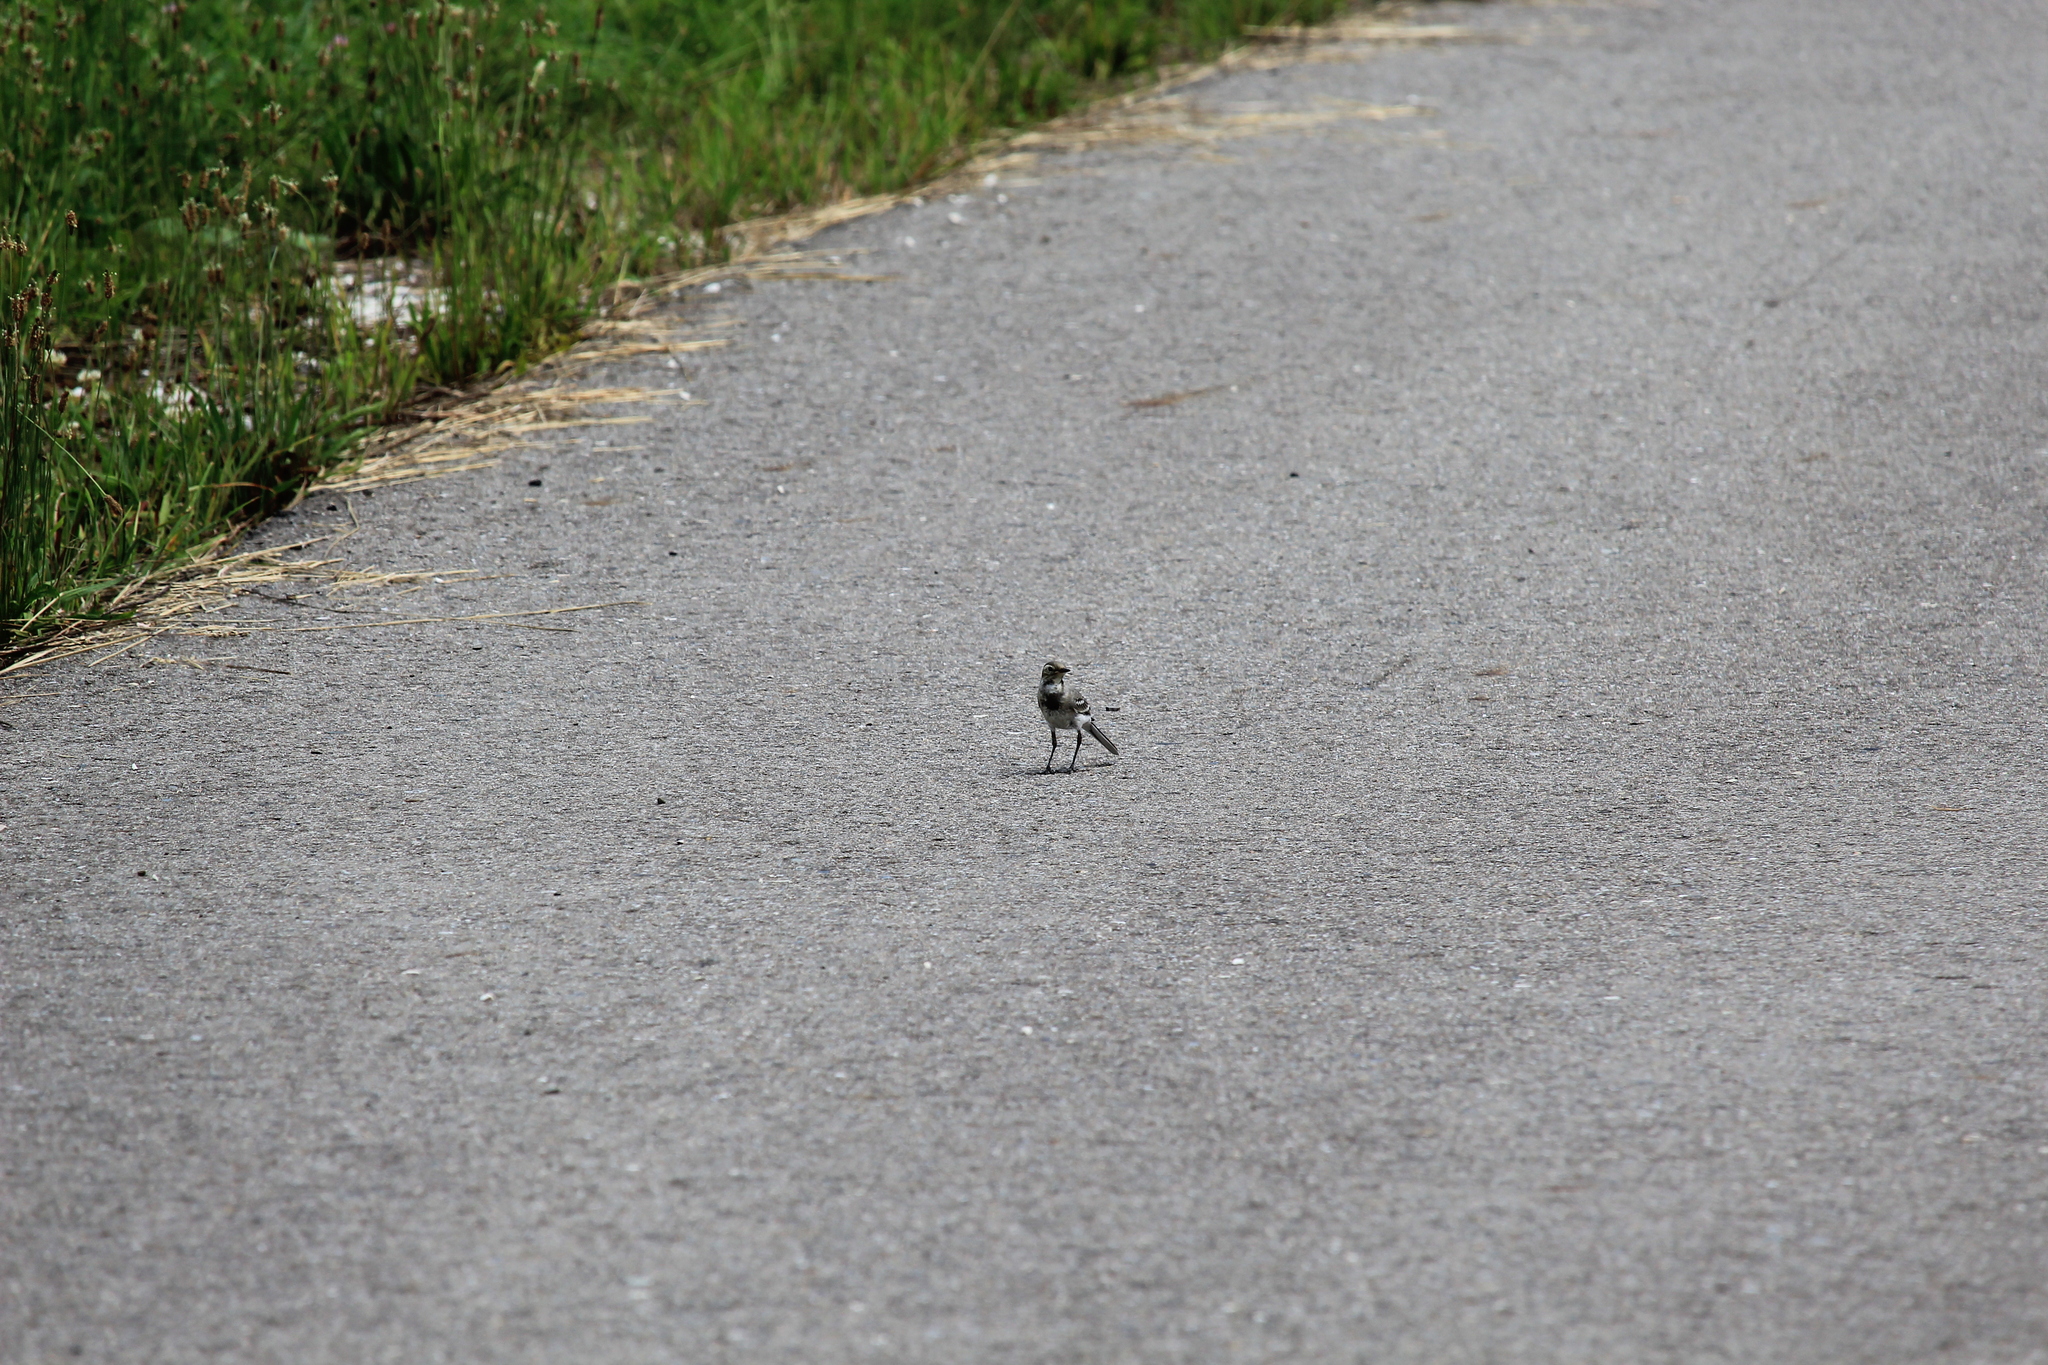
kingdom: Animalia
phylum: Chordata
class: Aves
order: Passeriformes
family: Motacillidae
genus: Motacilla
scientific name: Motacilla alba
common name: White wagtail
